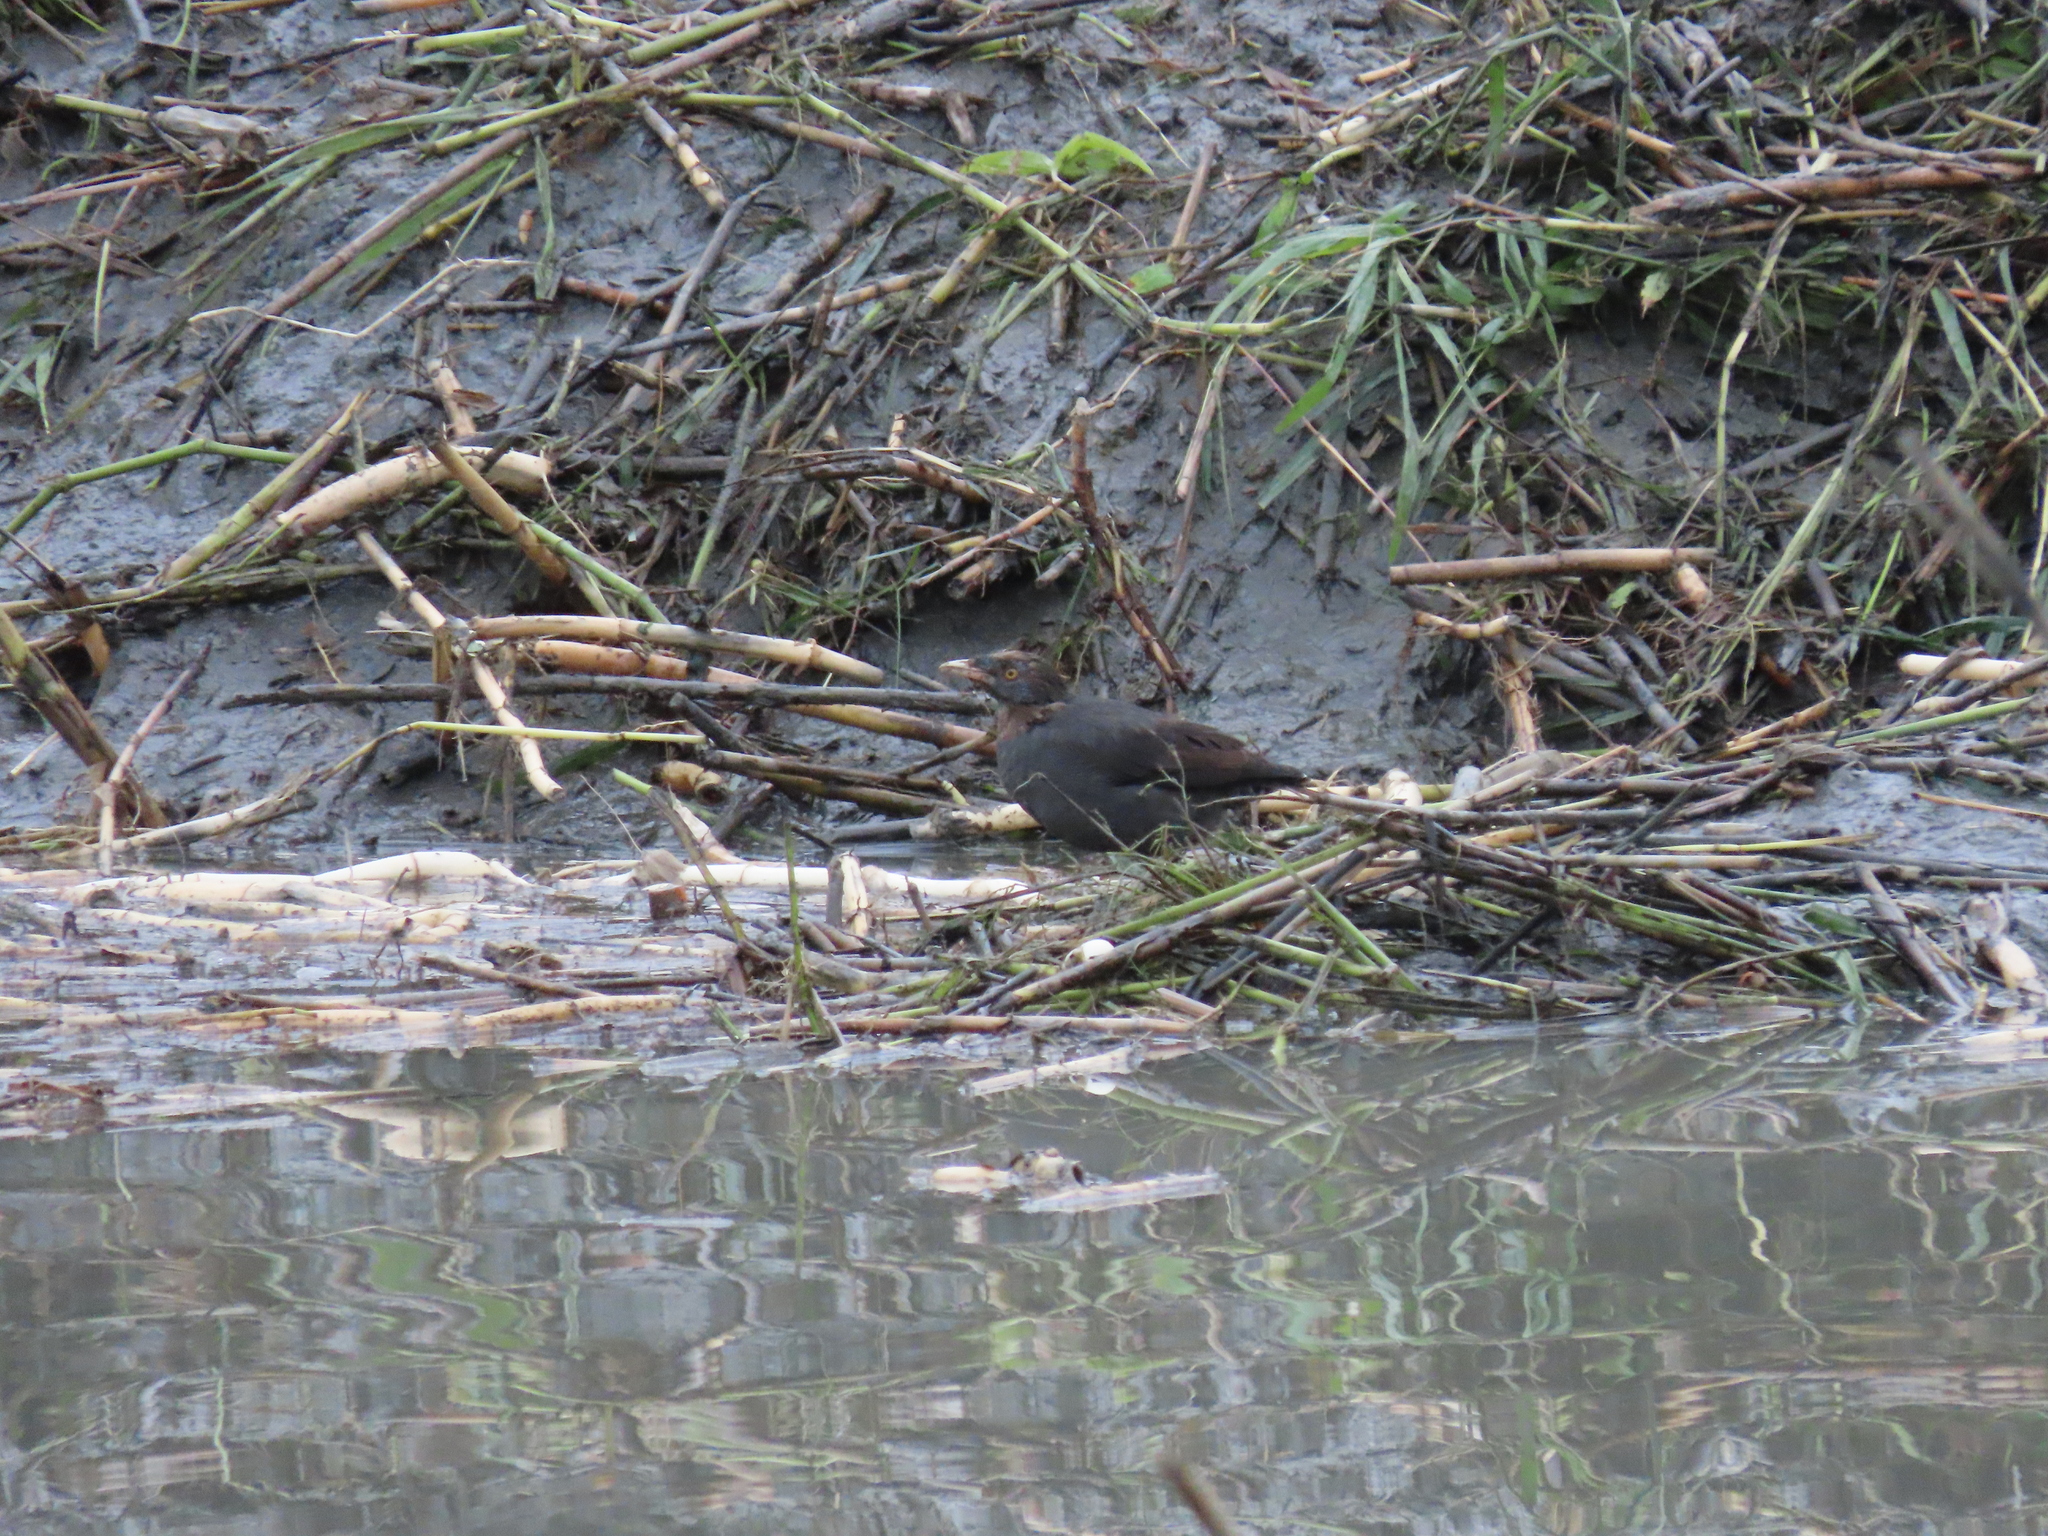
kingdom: Animalia
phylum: Chordata
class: Aves
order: Passeriformes
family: Sturnidae
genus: Acridotheres
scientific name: Acridotheres cristatellus
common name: Crested myna
